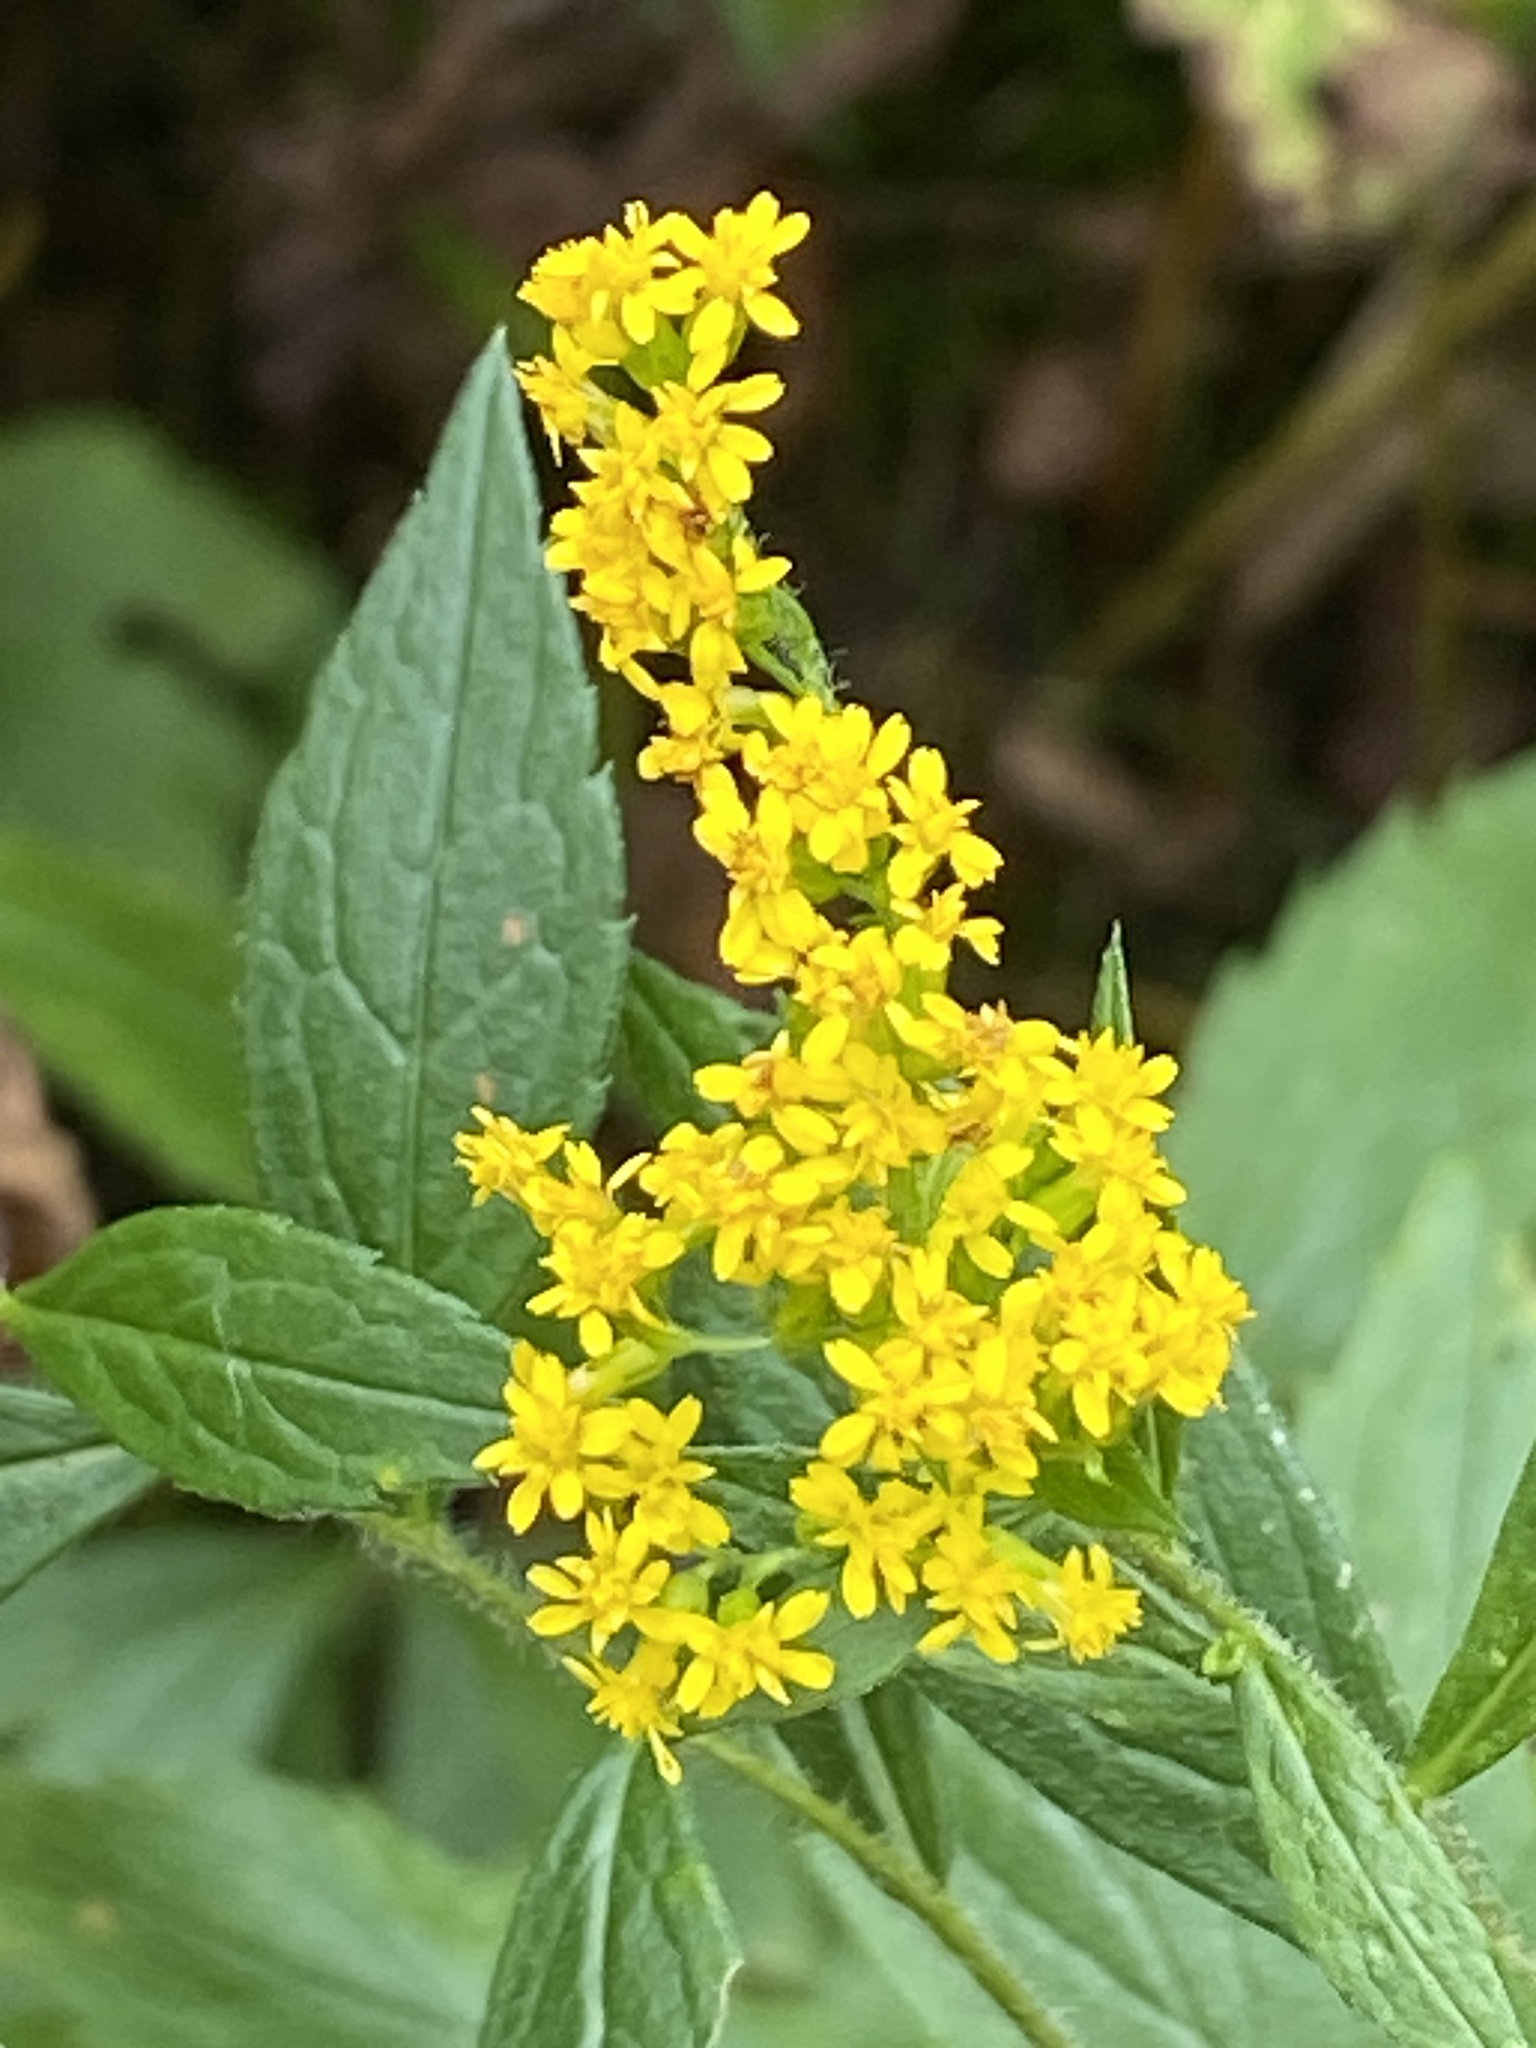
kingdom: Plantae
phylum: Tracheophyta
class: Magnoliopsida
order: Asterales
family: Asteraceae
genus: Solidago
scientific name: Solidago rugosa
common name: Rough-stemmed goldenrod
